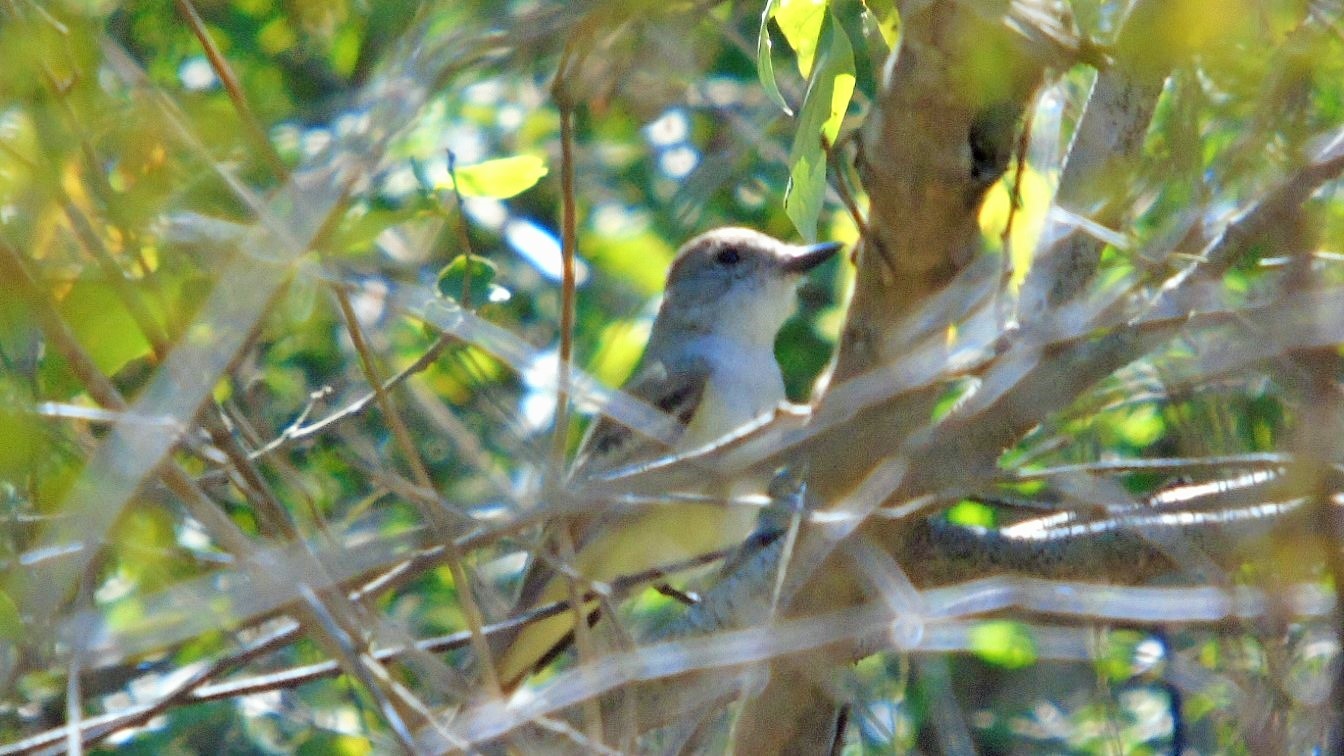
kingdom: Animalia
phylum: Chordata
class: Aves
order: Passeriformes
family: Tyrannidae
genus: Myiarchus
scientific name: Myiarchus cinerascens
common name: Ash-throated flycatcher
